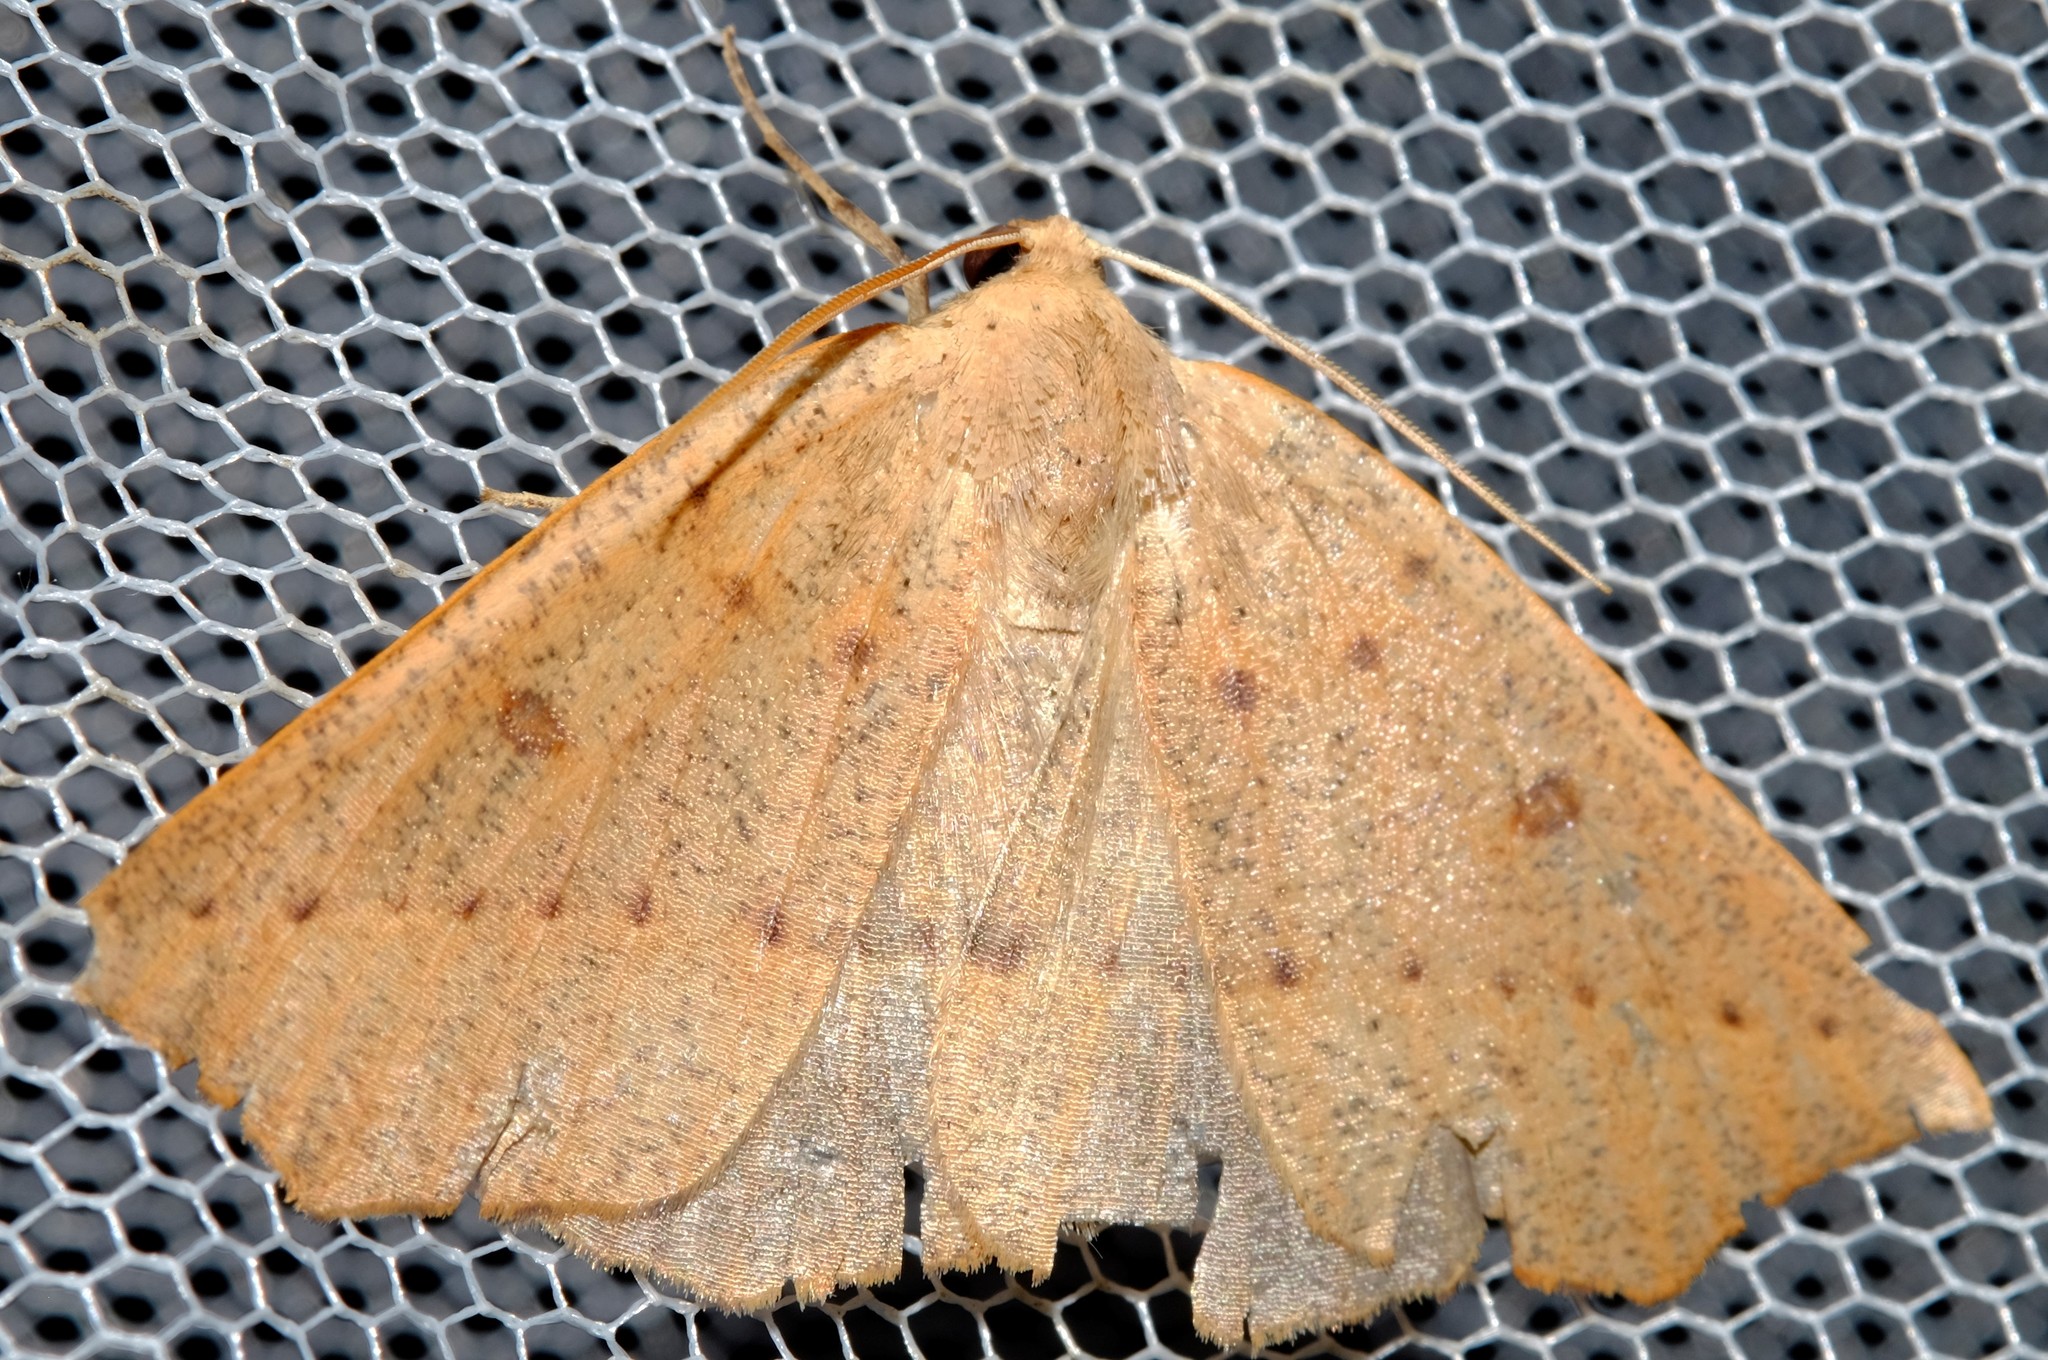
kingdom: Animalia
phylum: Arthropoda
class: Insecta
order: Lepidoptera
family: Geometridae
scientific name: Geometridae
